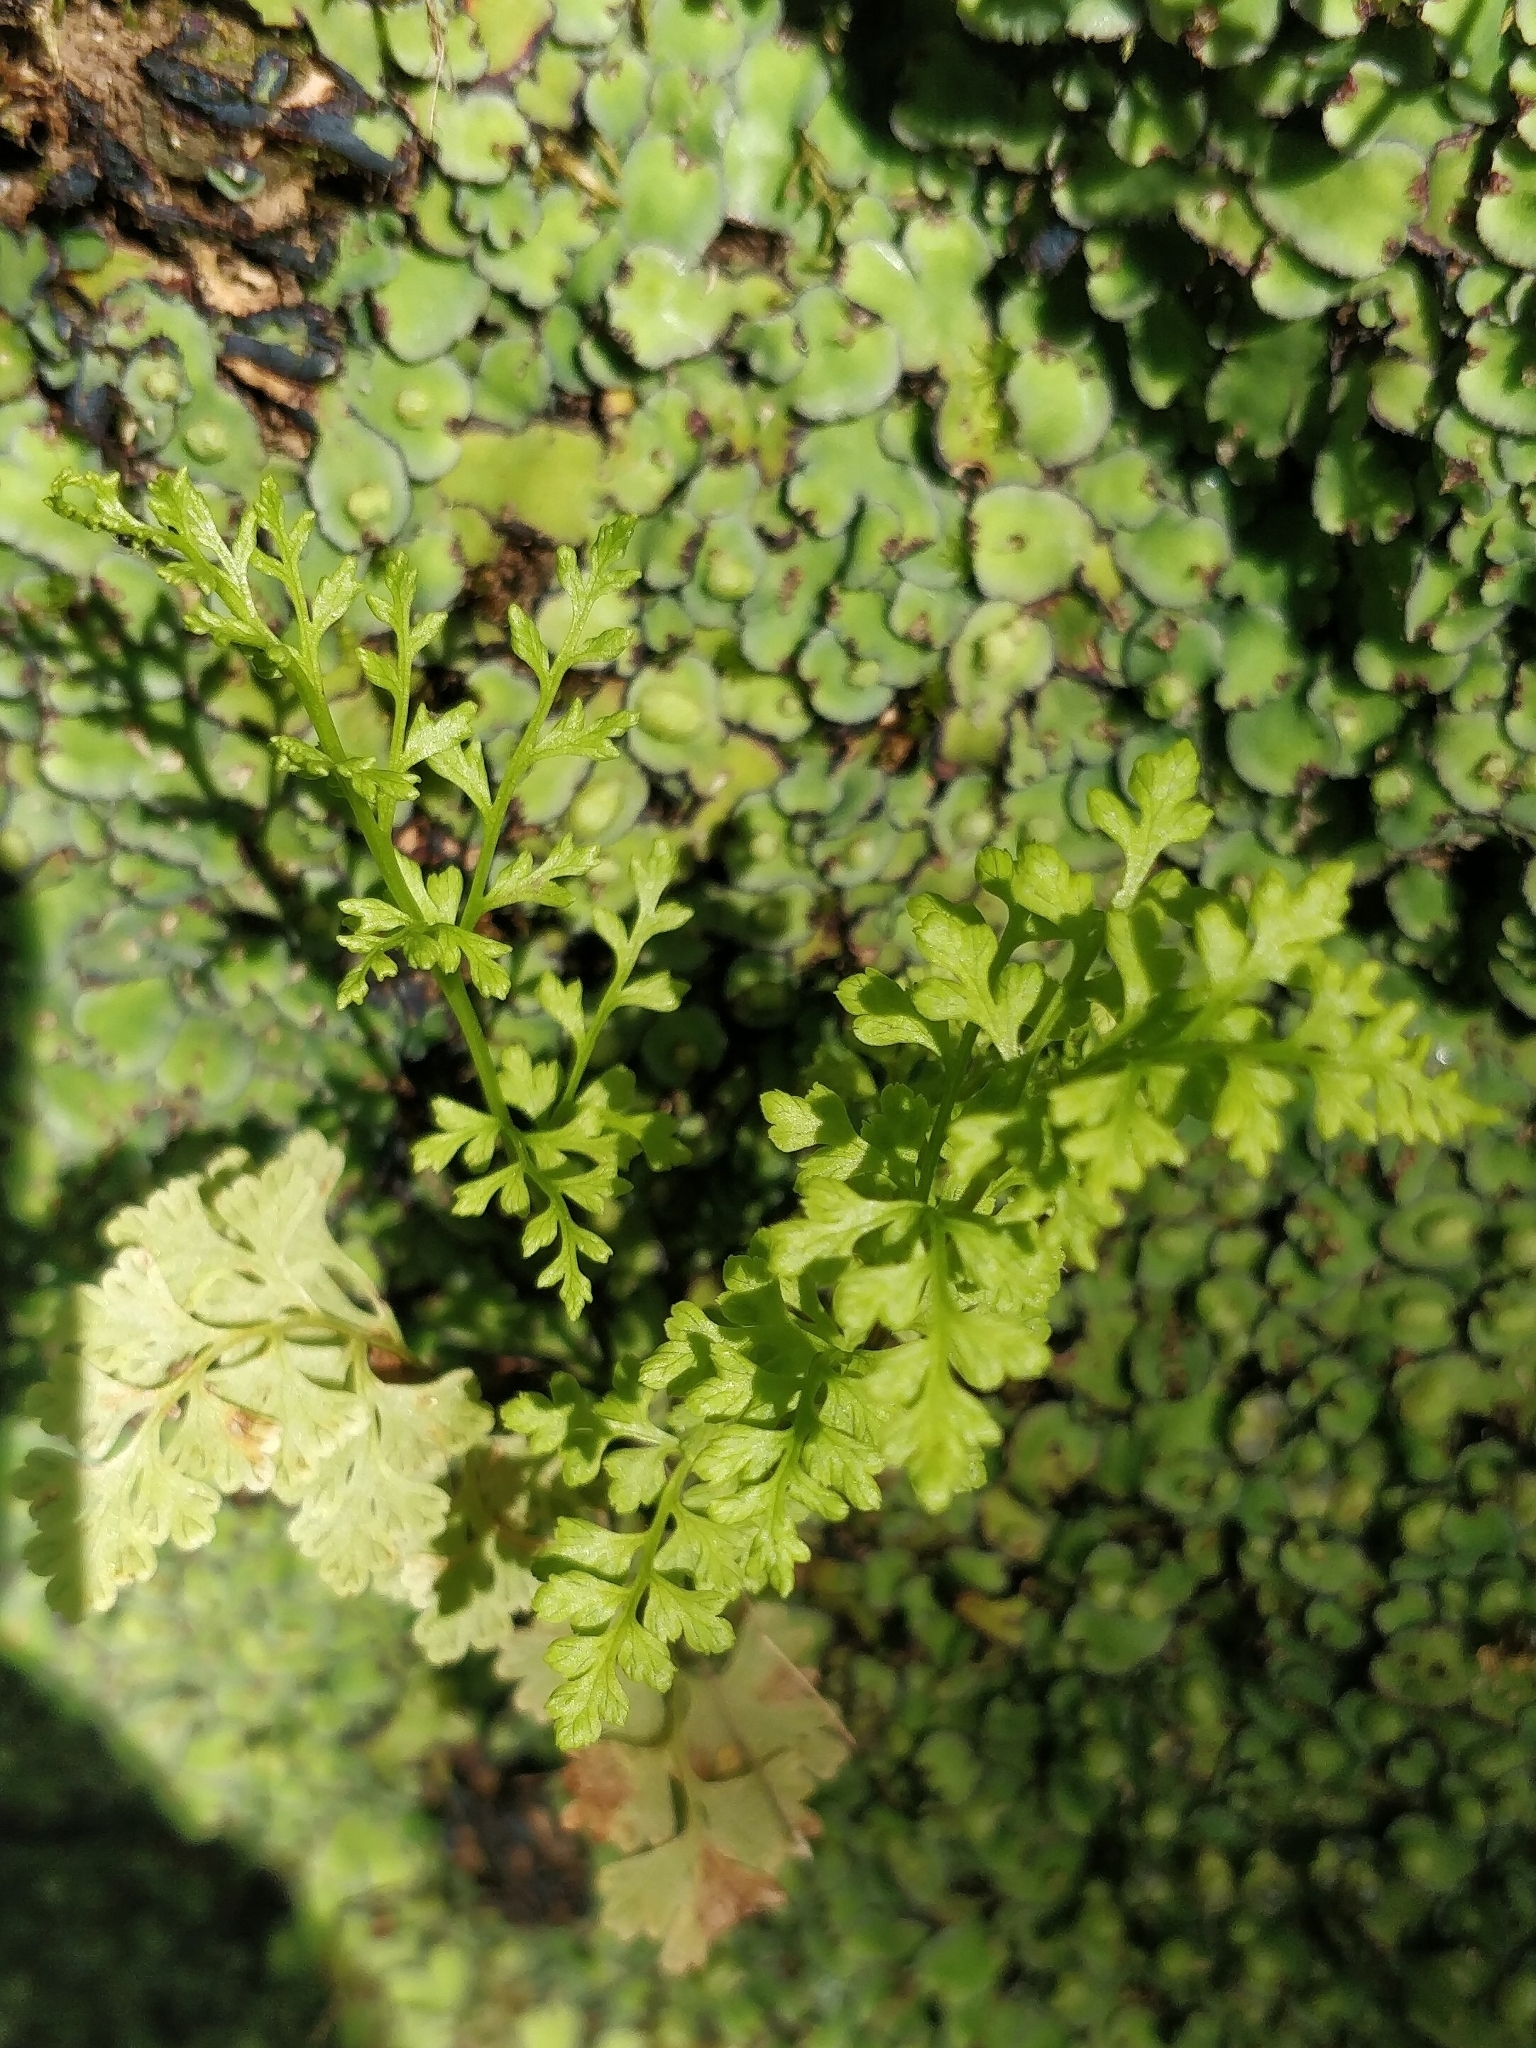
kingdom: Plantae
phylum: Tracheophyta
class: Polypodiopsida
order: Polypodiales
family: Pteridaceae
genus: Anogramma
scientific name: Anogramma leptophylla
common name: Jersey fern
